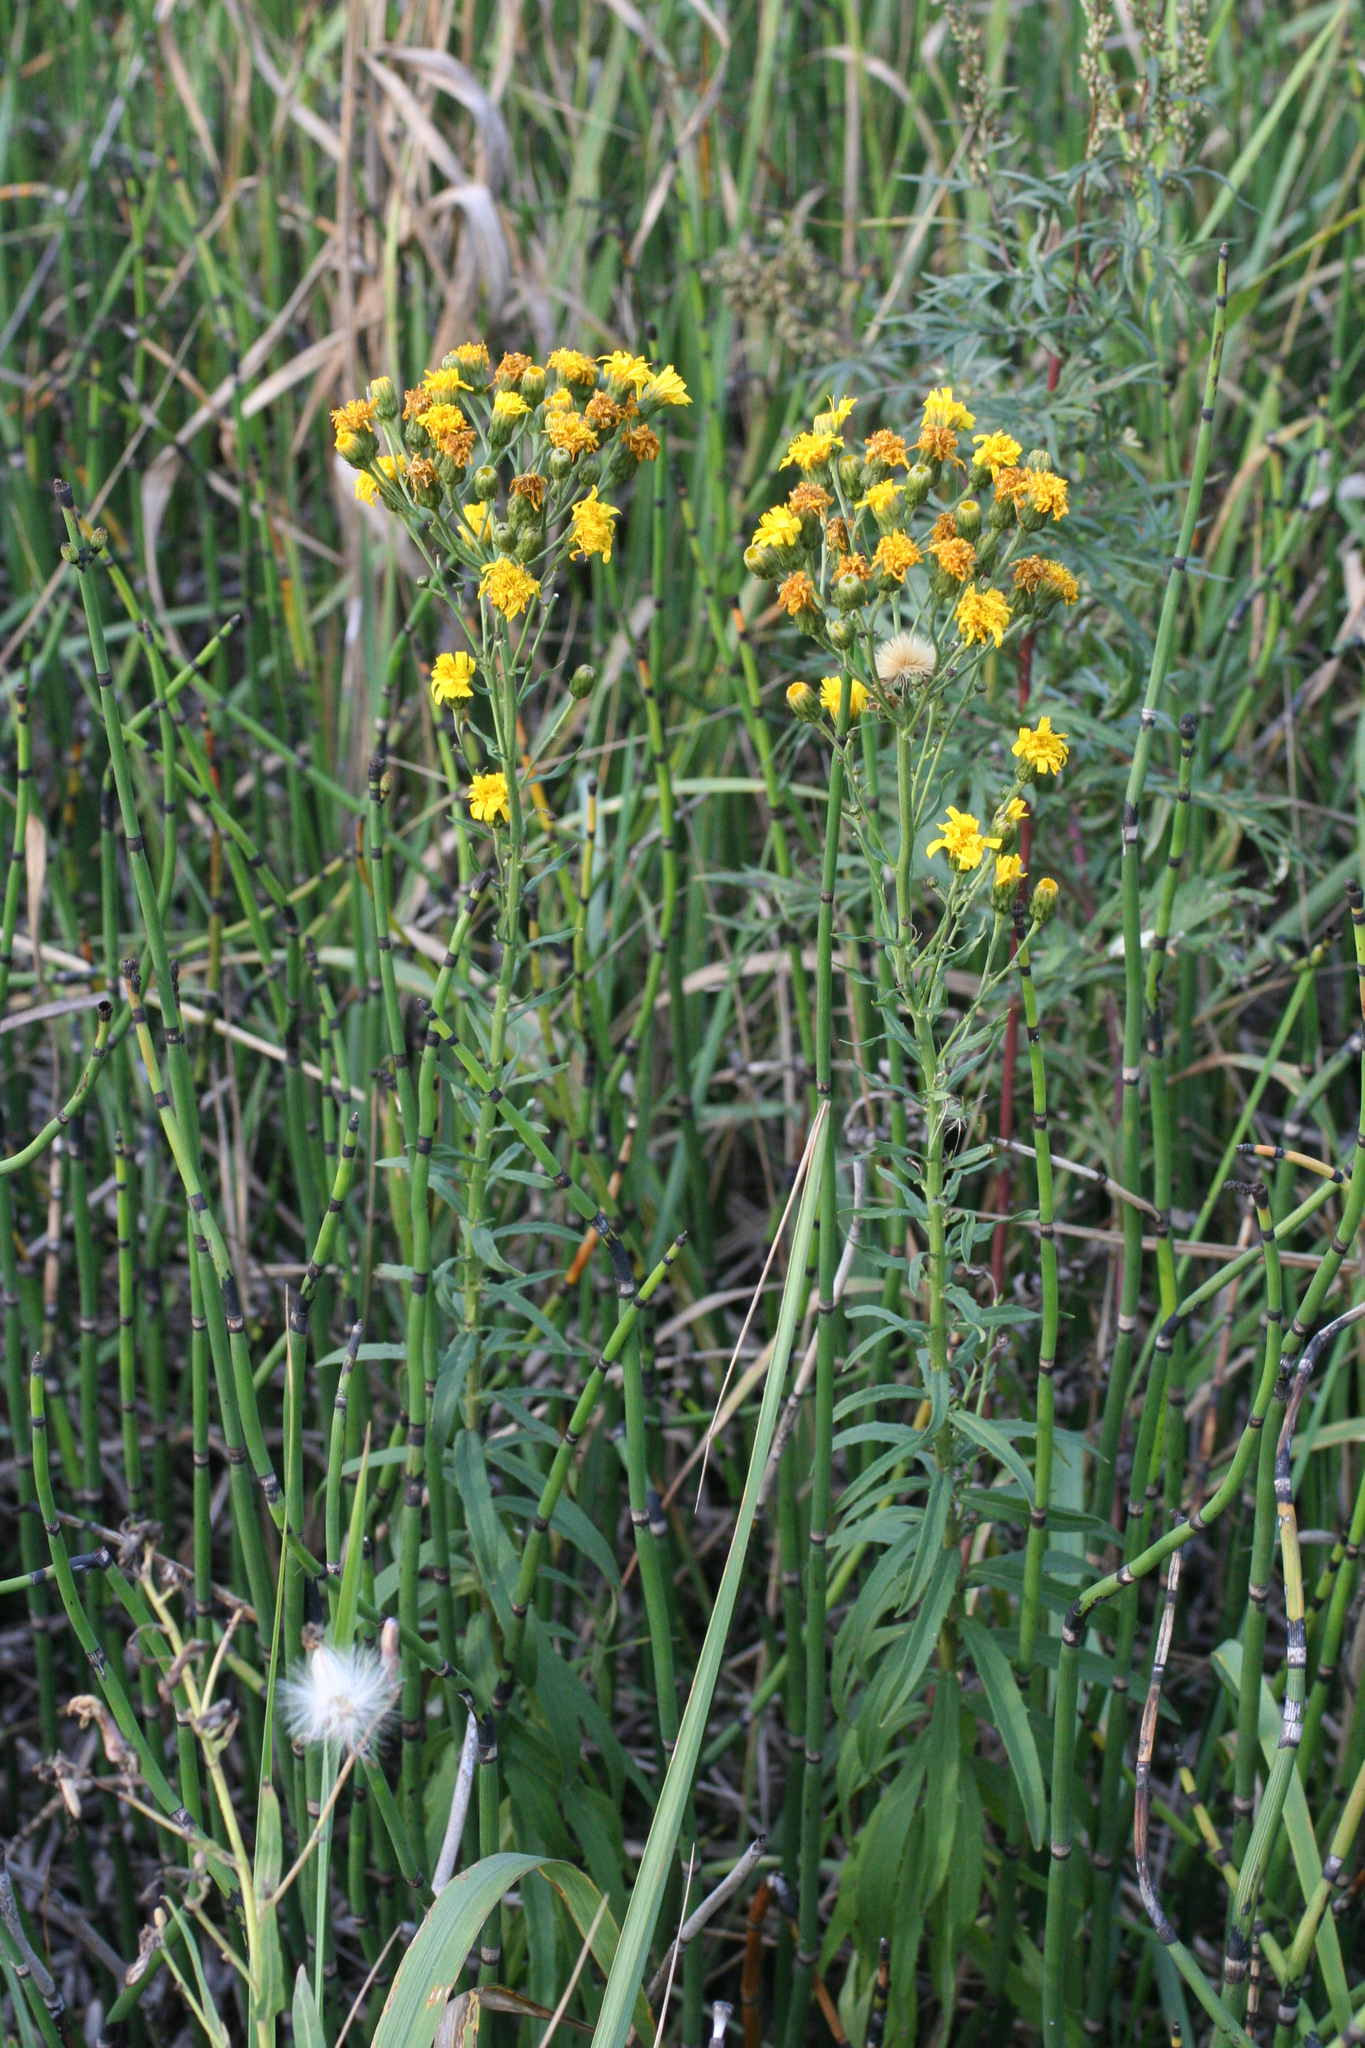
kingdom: Plantae
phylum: Tracheophyta
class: Magnoliopsida
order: Asterales
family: Asteraceae
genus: Hieracium
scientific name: Hieracium umbellatum
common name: Northern hawkweed
